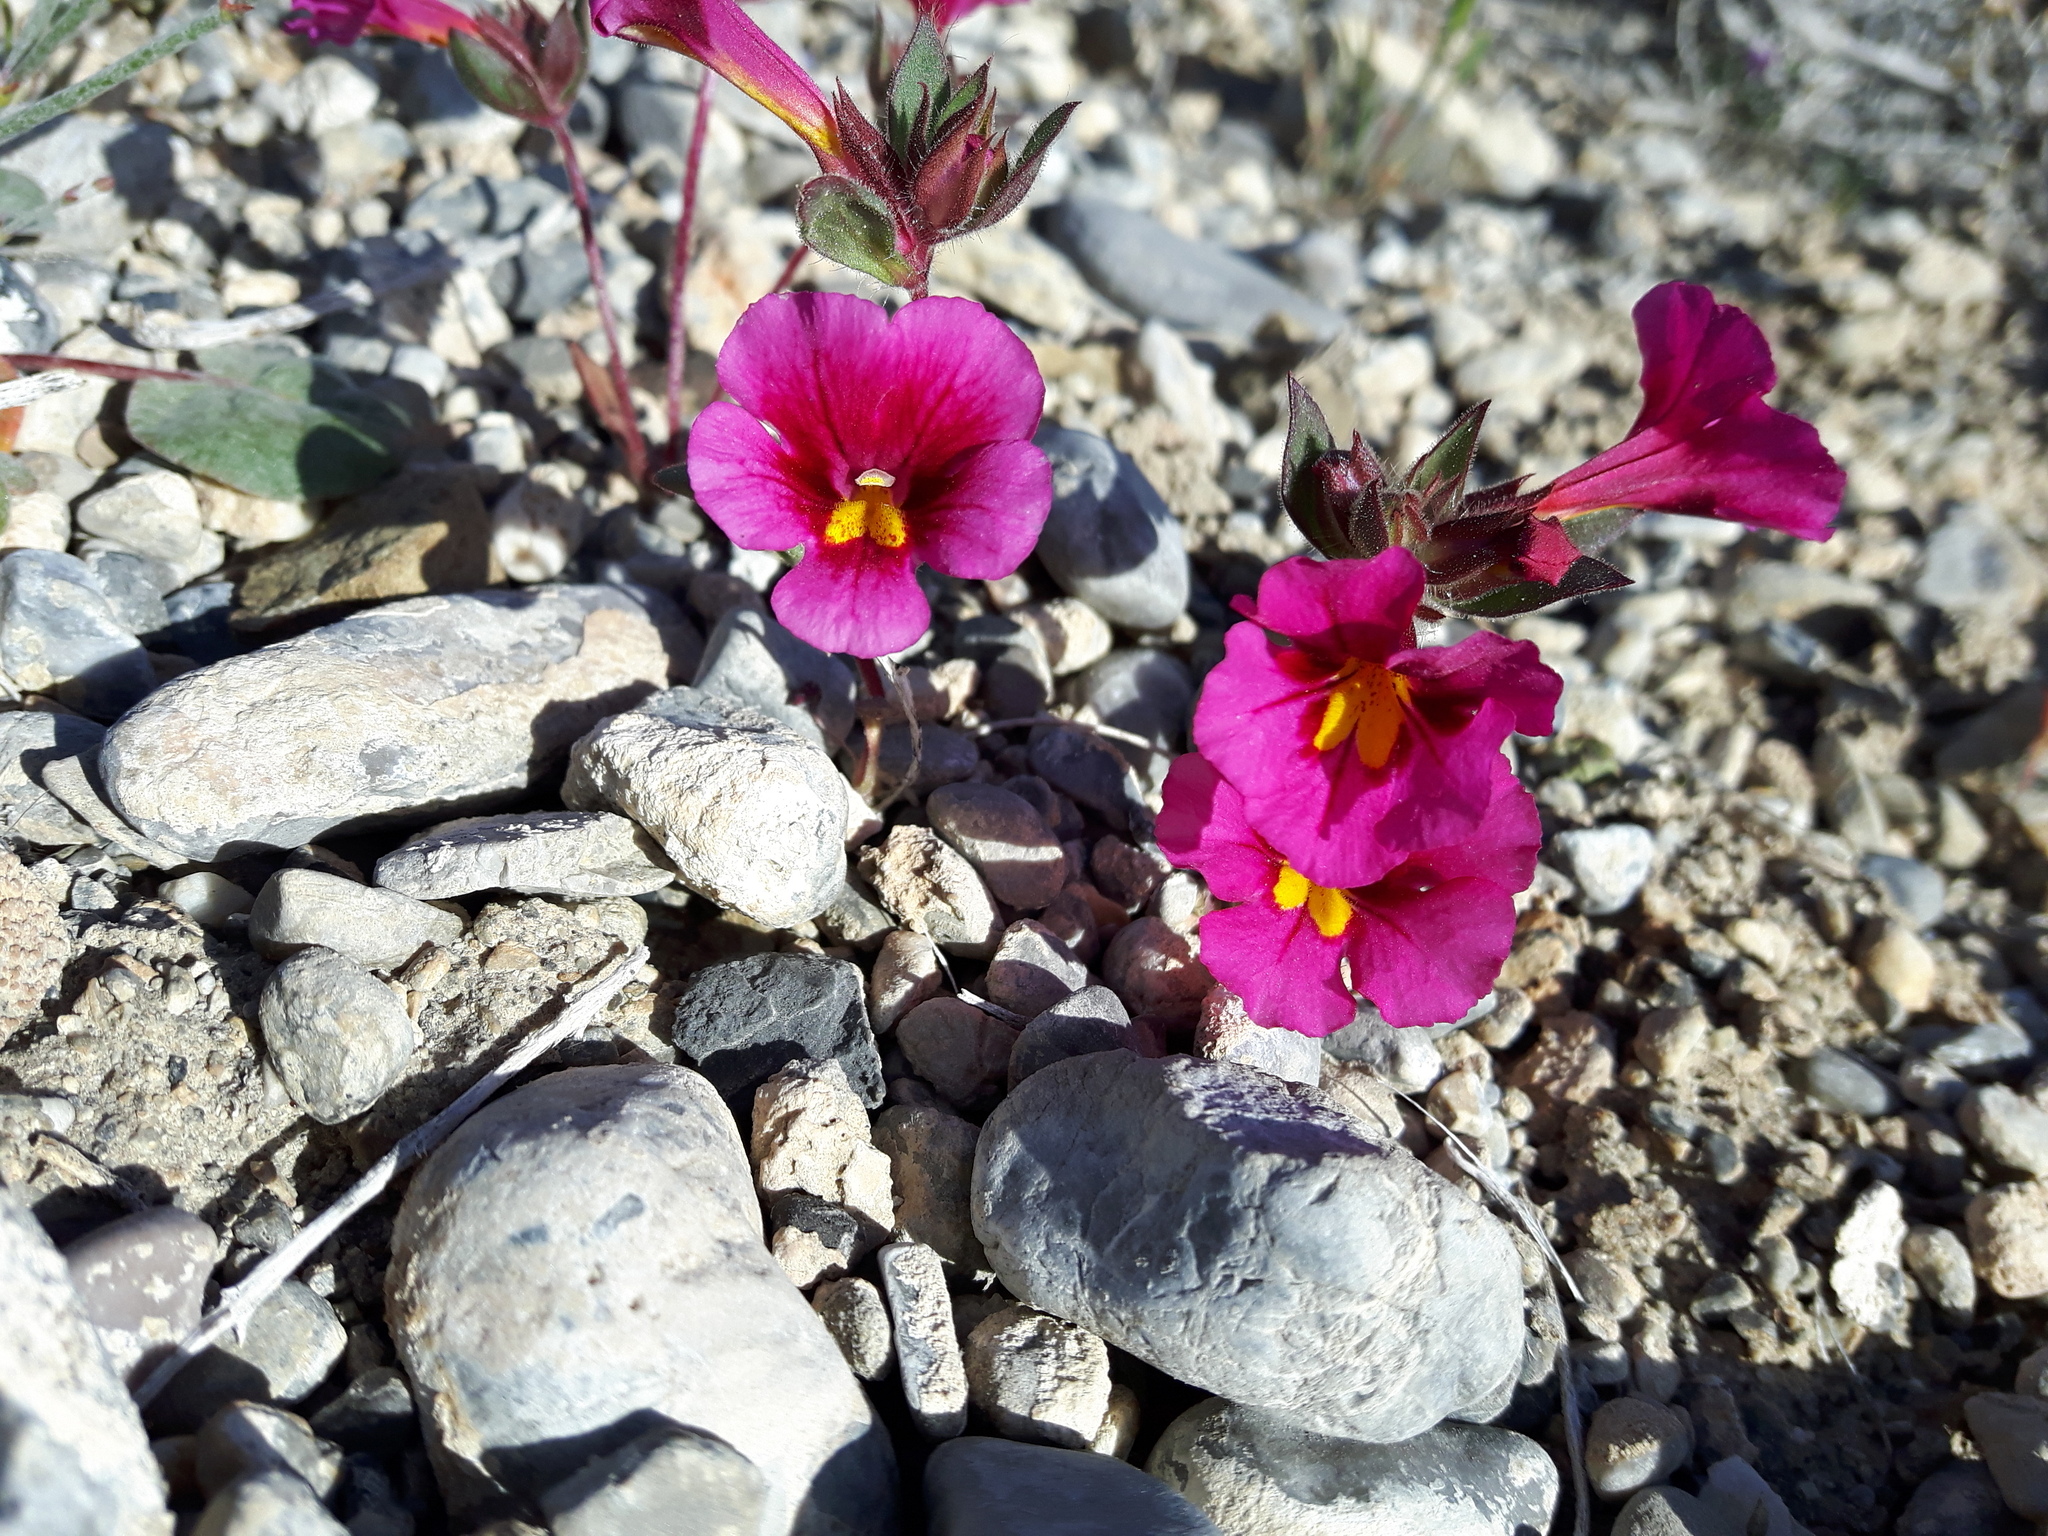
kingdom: Plantae
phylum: Tracheophyta
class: Magnoliopsida
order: Lamiales
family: Phrymaceae
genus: Diplacus
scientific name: Diplacus bigelovii
